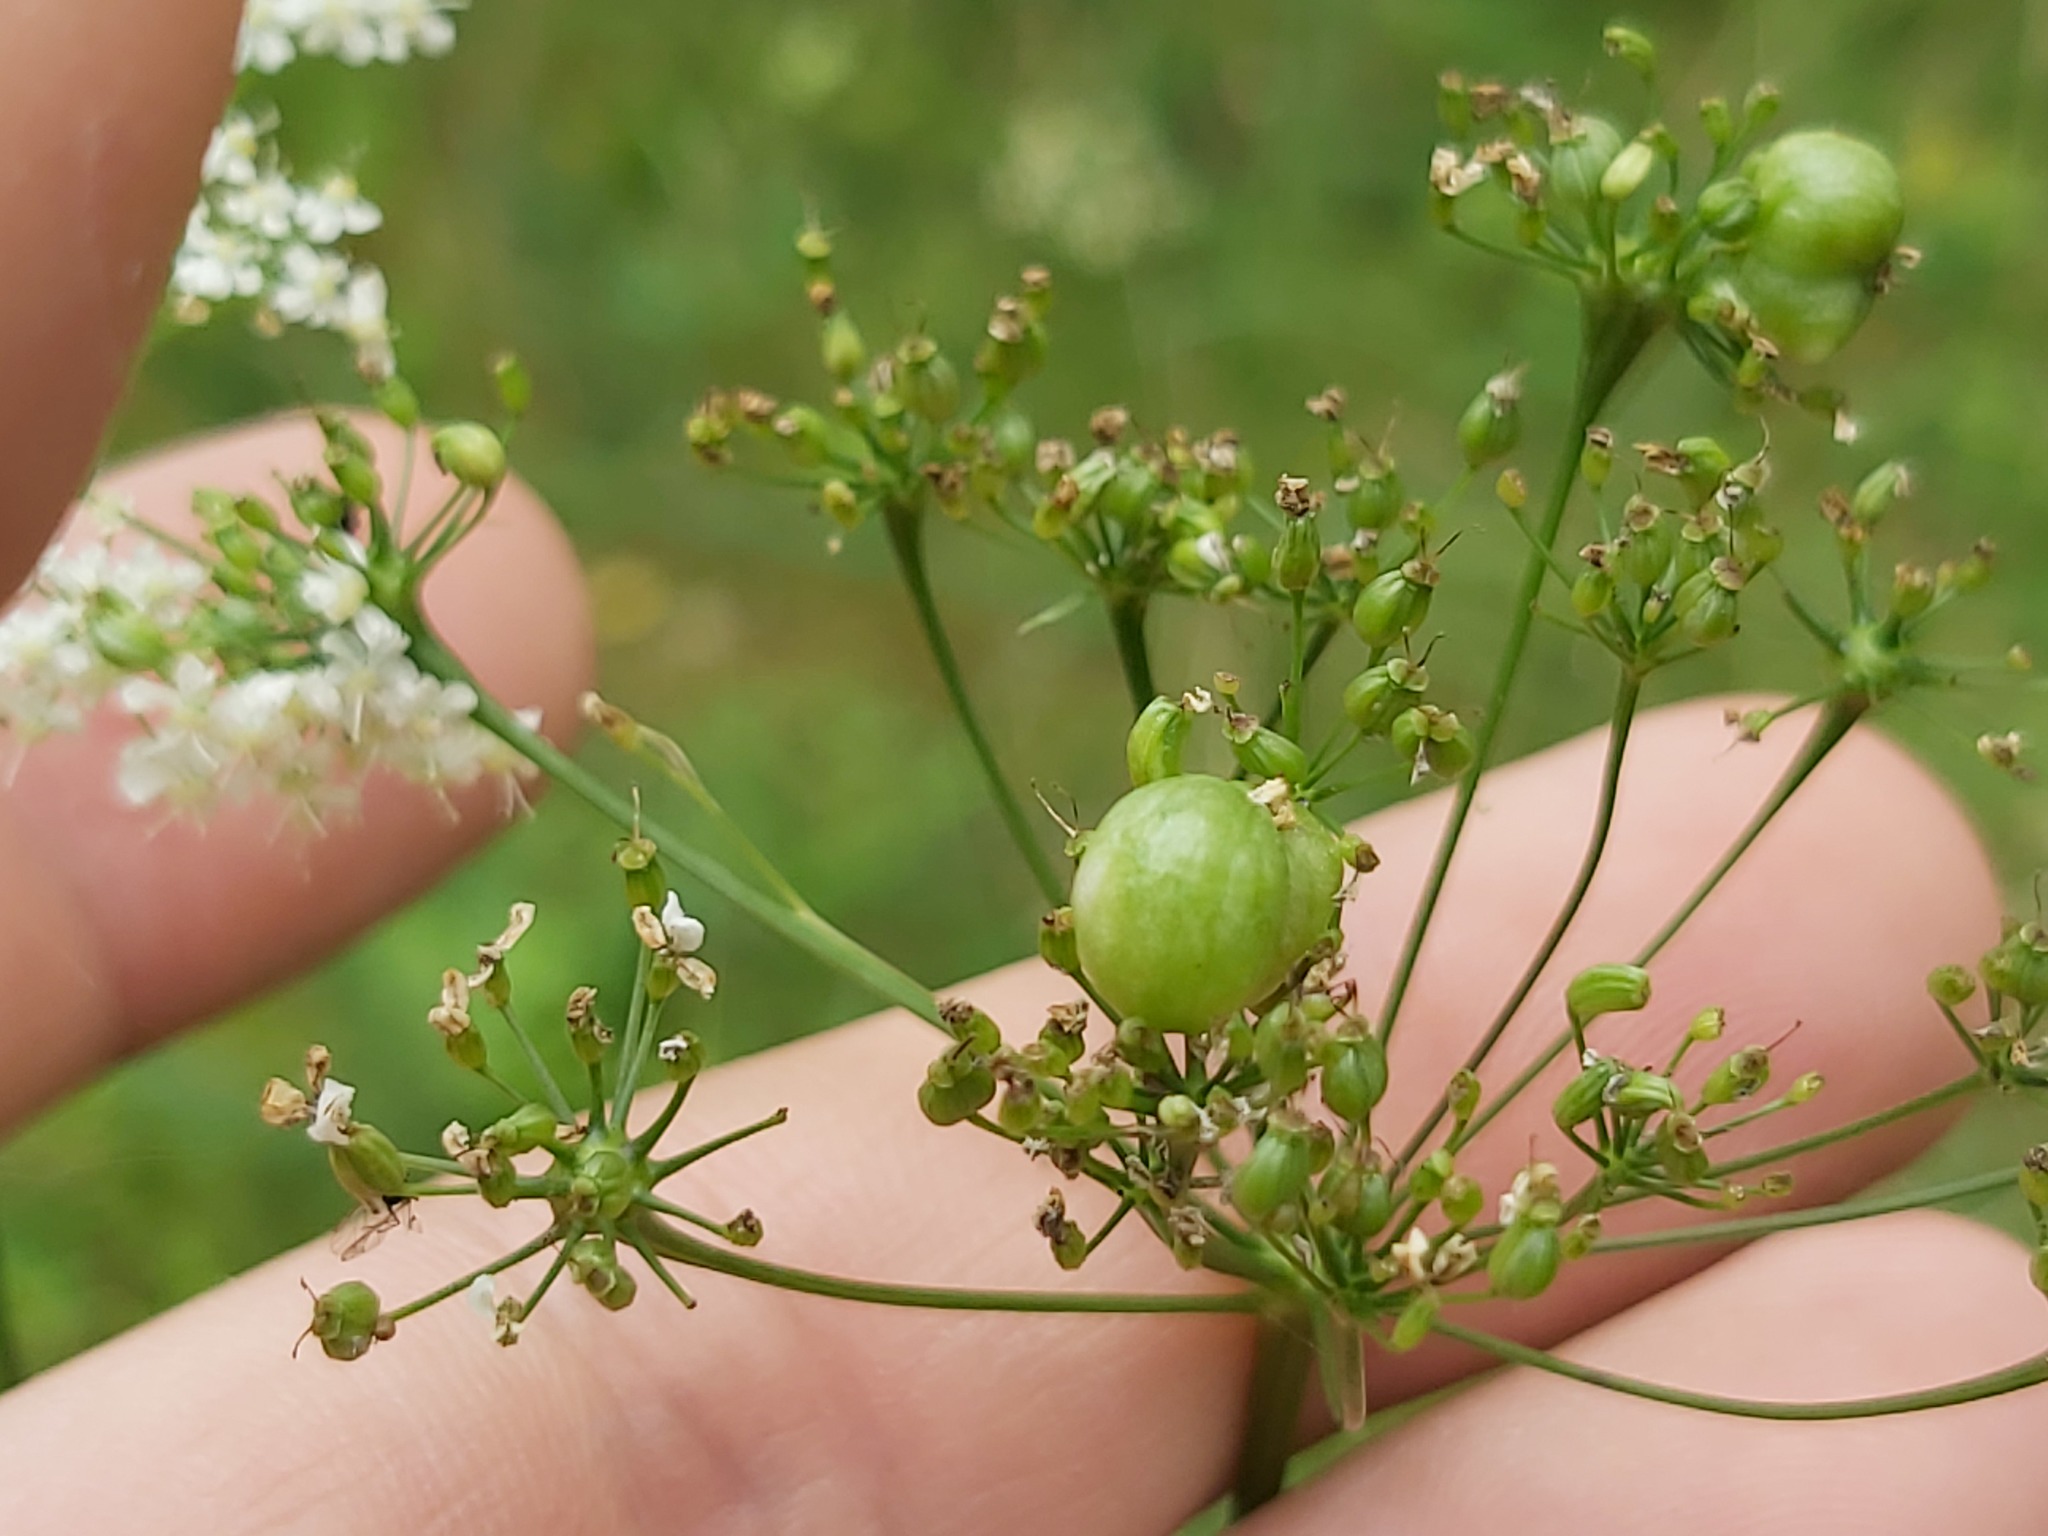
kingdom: Animalia
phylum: Arthropoda
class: Insecta
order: Diptera
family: Cecidomyiidae
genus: Kiefferia
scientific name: Kiefferia pericarpiicola
